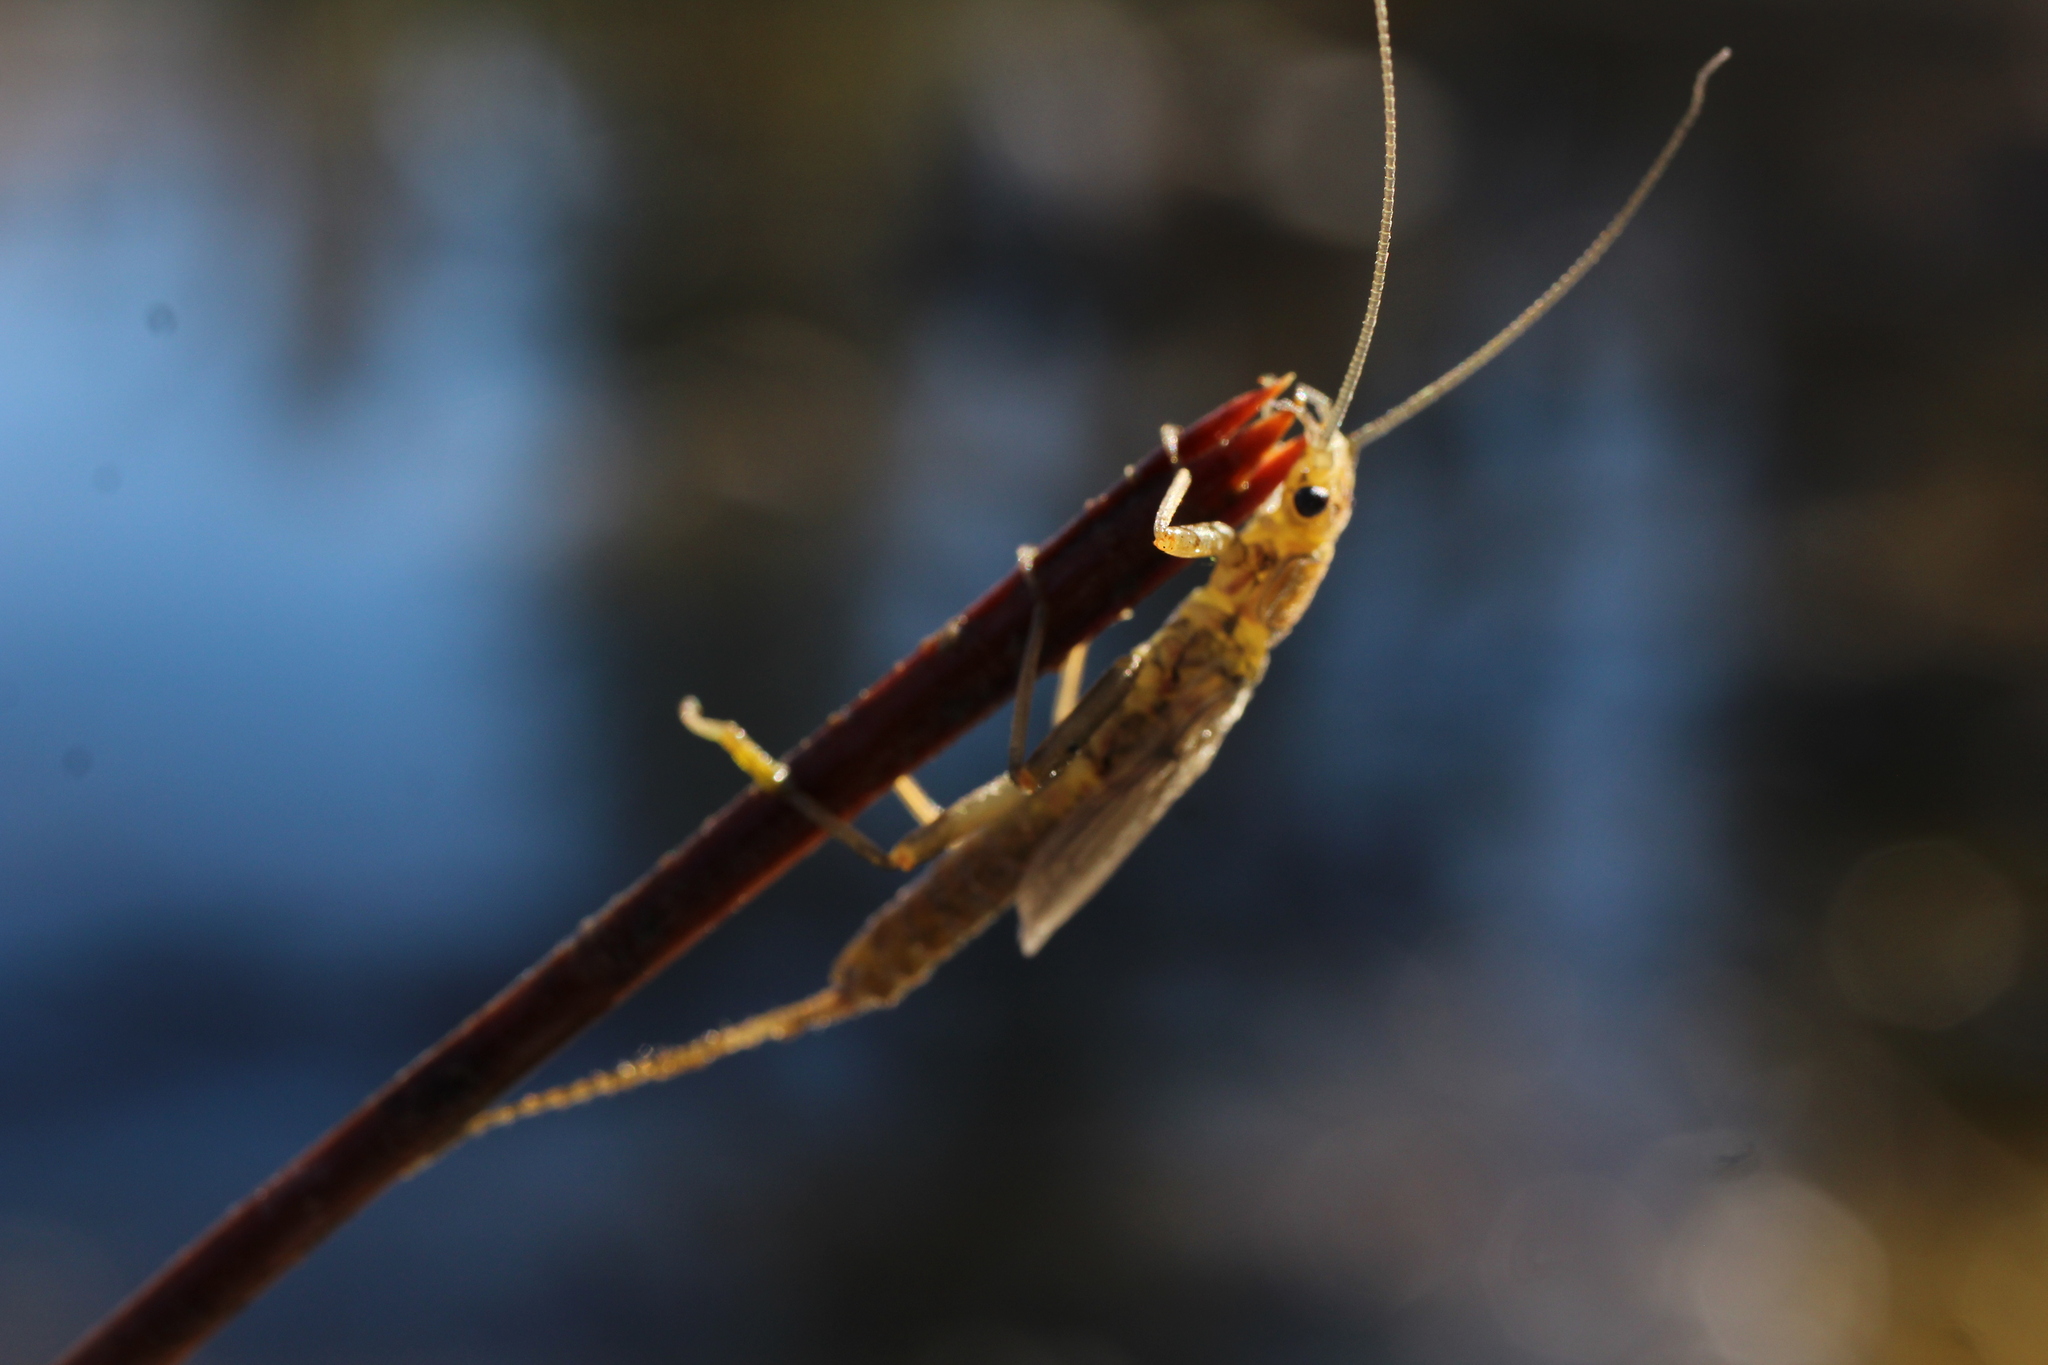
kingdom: Animalia
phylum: Arthropoda
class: Insecta
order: Plecoptera
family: Perlidae
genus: Claassenia
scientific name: Claassenia sabulosa
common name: Shortwing stone
